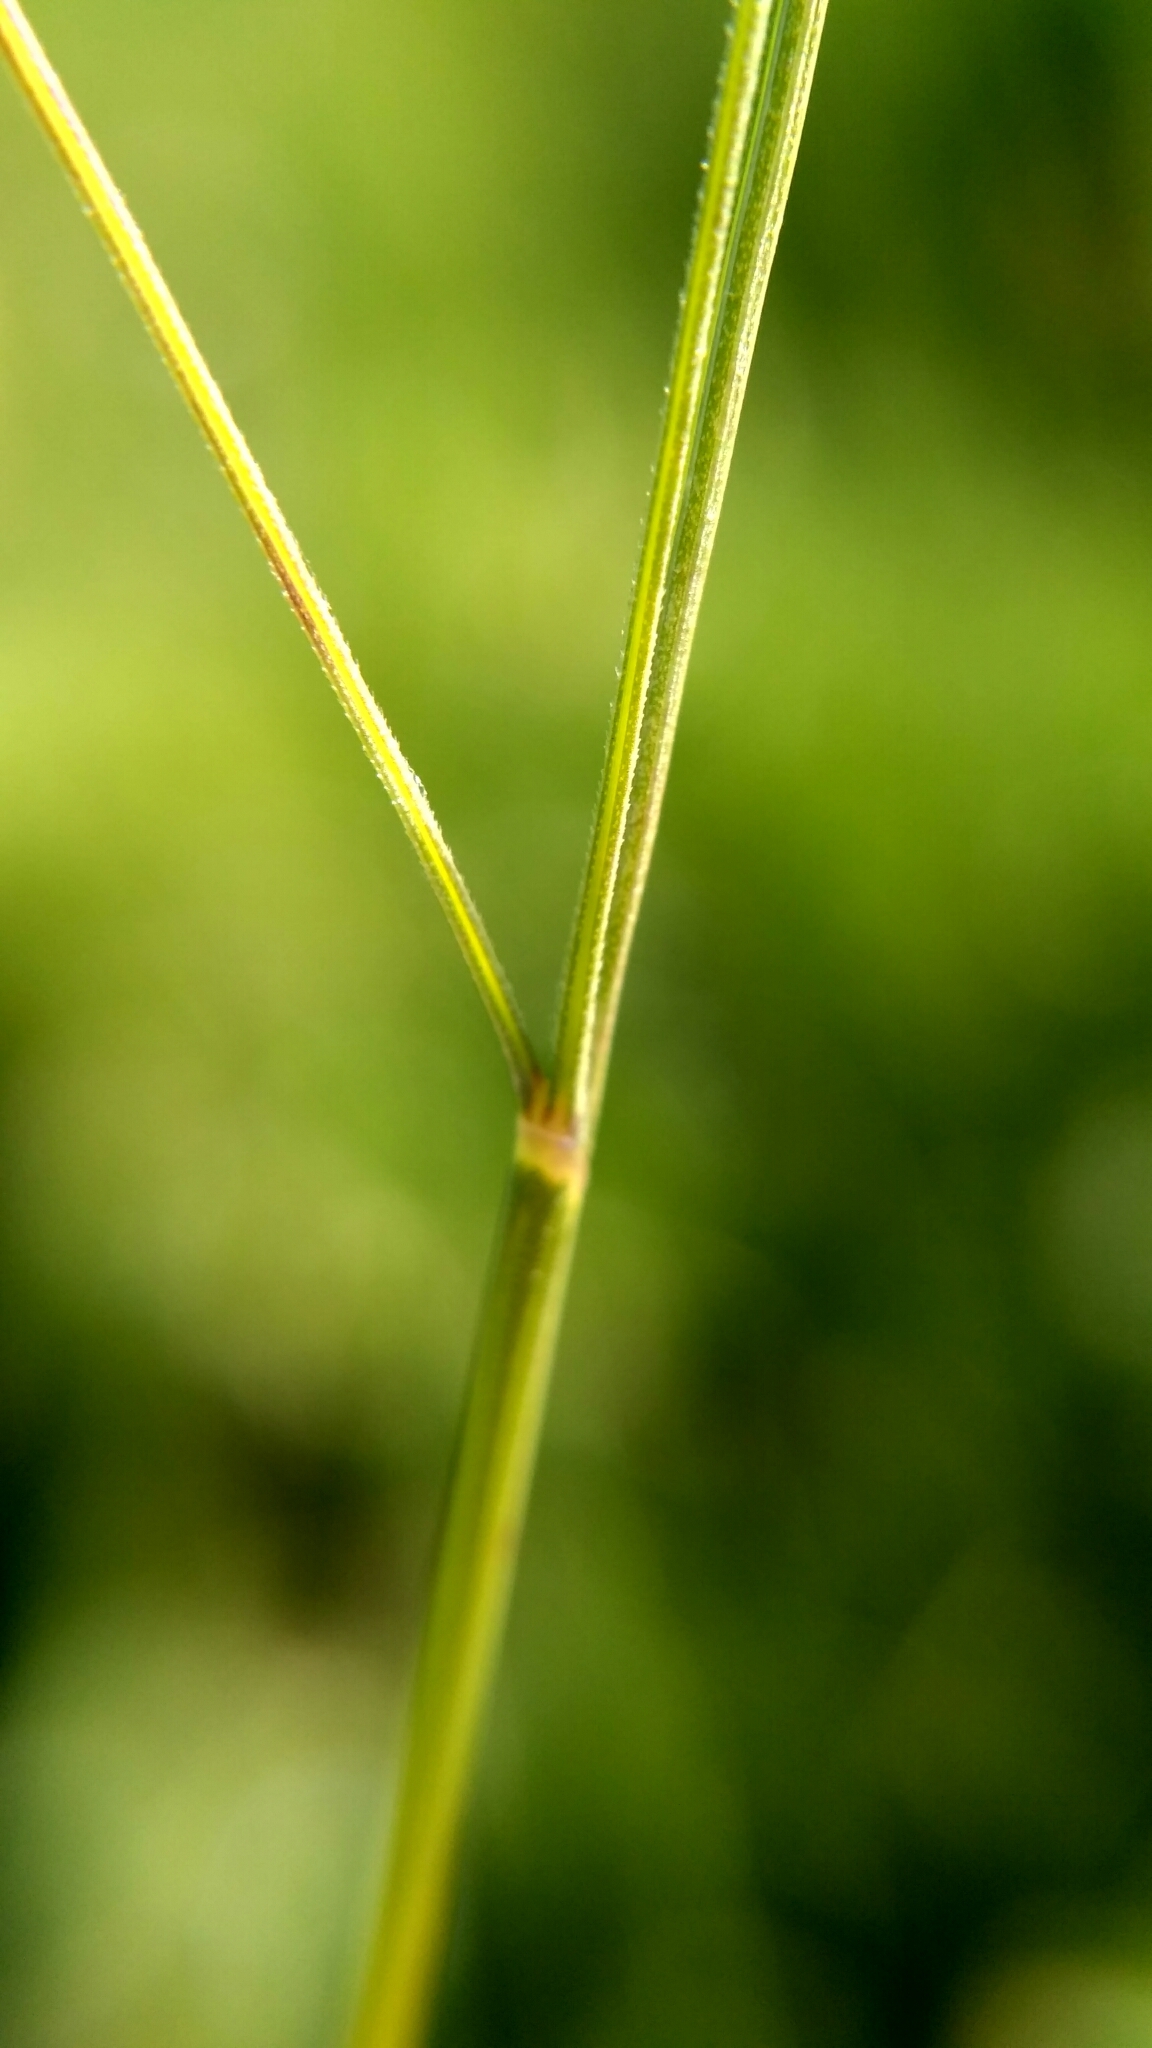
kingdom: Plantae
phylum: Tracheophyta
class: Liliopsida
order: Poales
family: Poaceae
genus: Festuca
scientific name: Festuca rubra
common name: Red fescue
